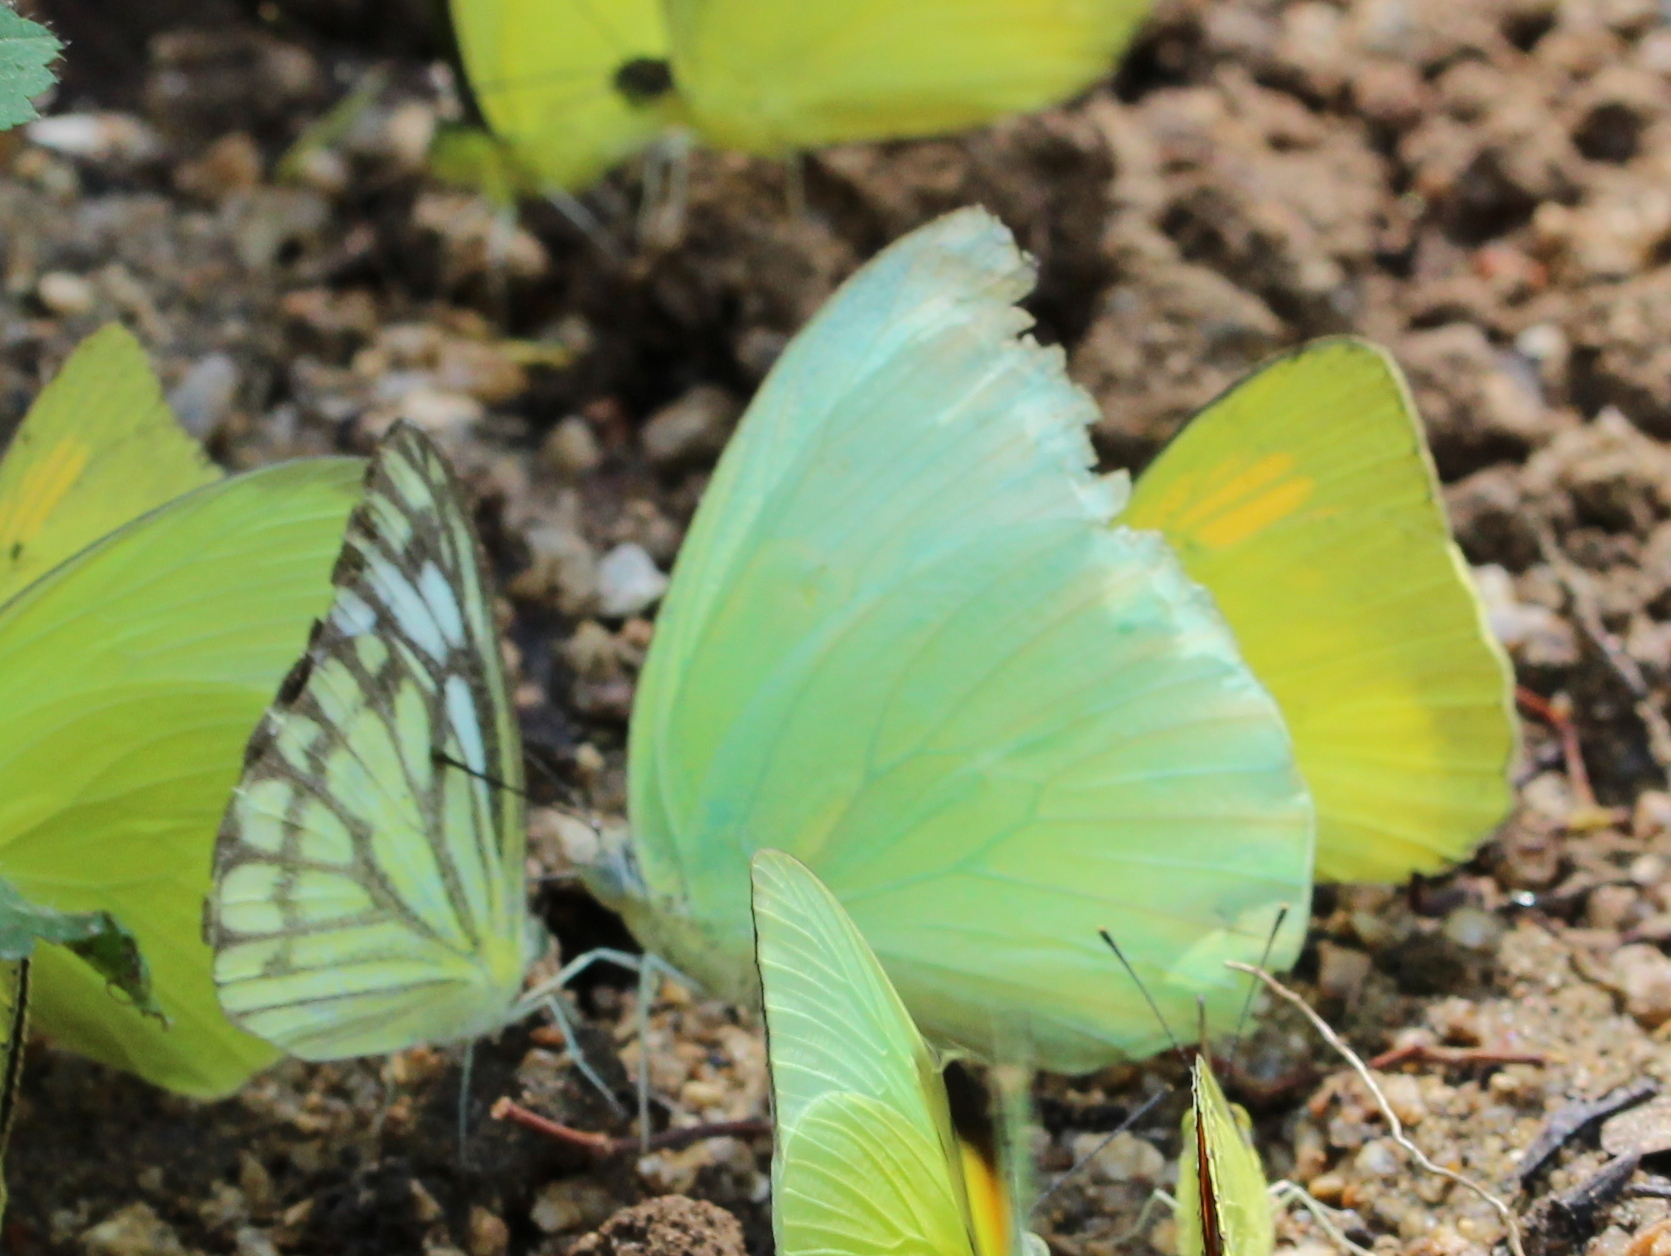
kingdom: Animalia
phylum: Arthropoda
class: Insecta
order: Lepidoptera
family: Pieridae
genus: Catopsilia
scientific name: Catopsilia pomona
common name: Common emigrant
